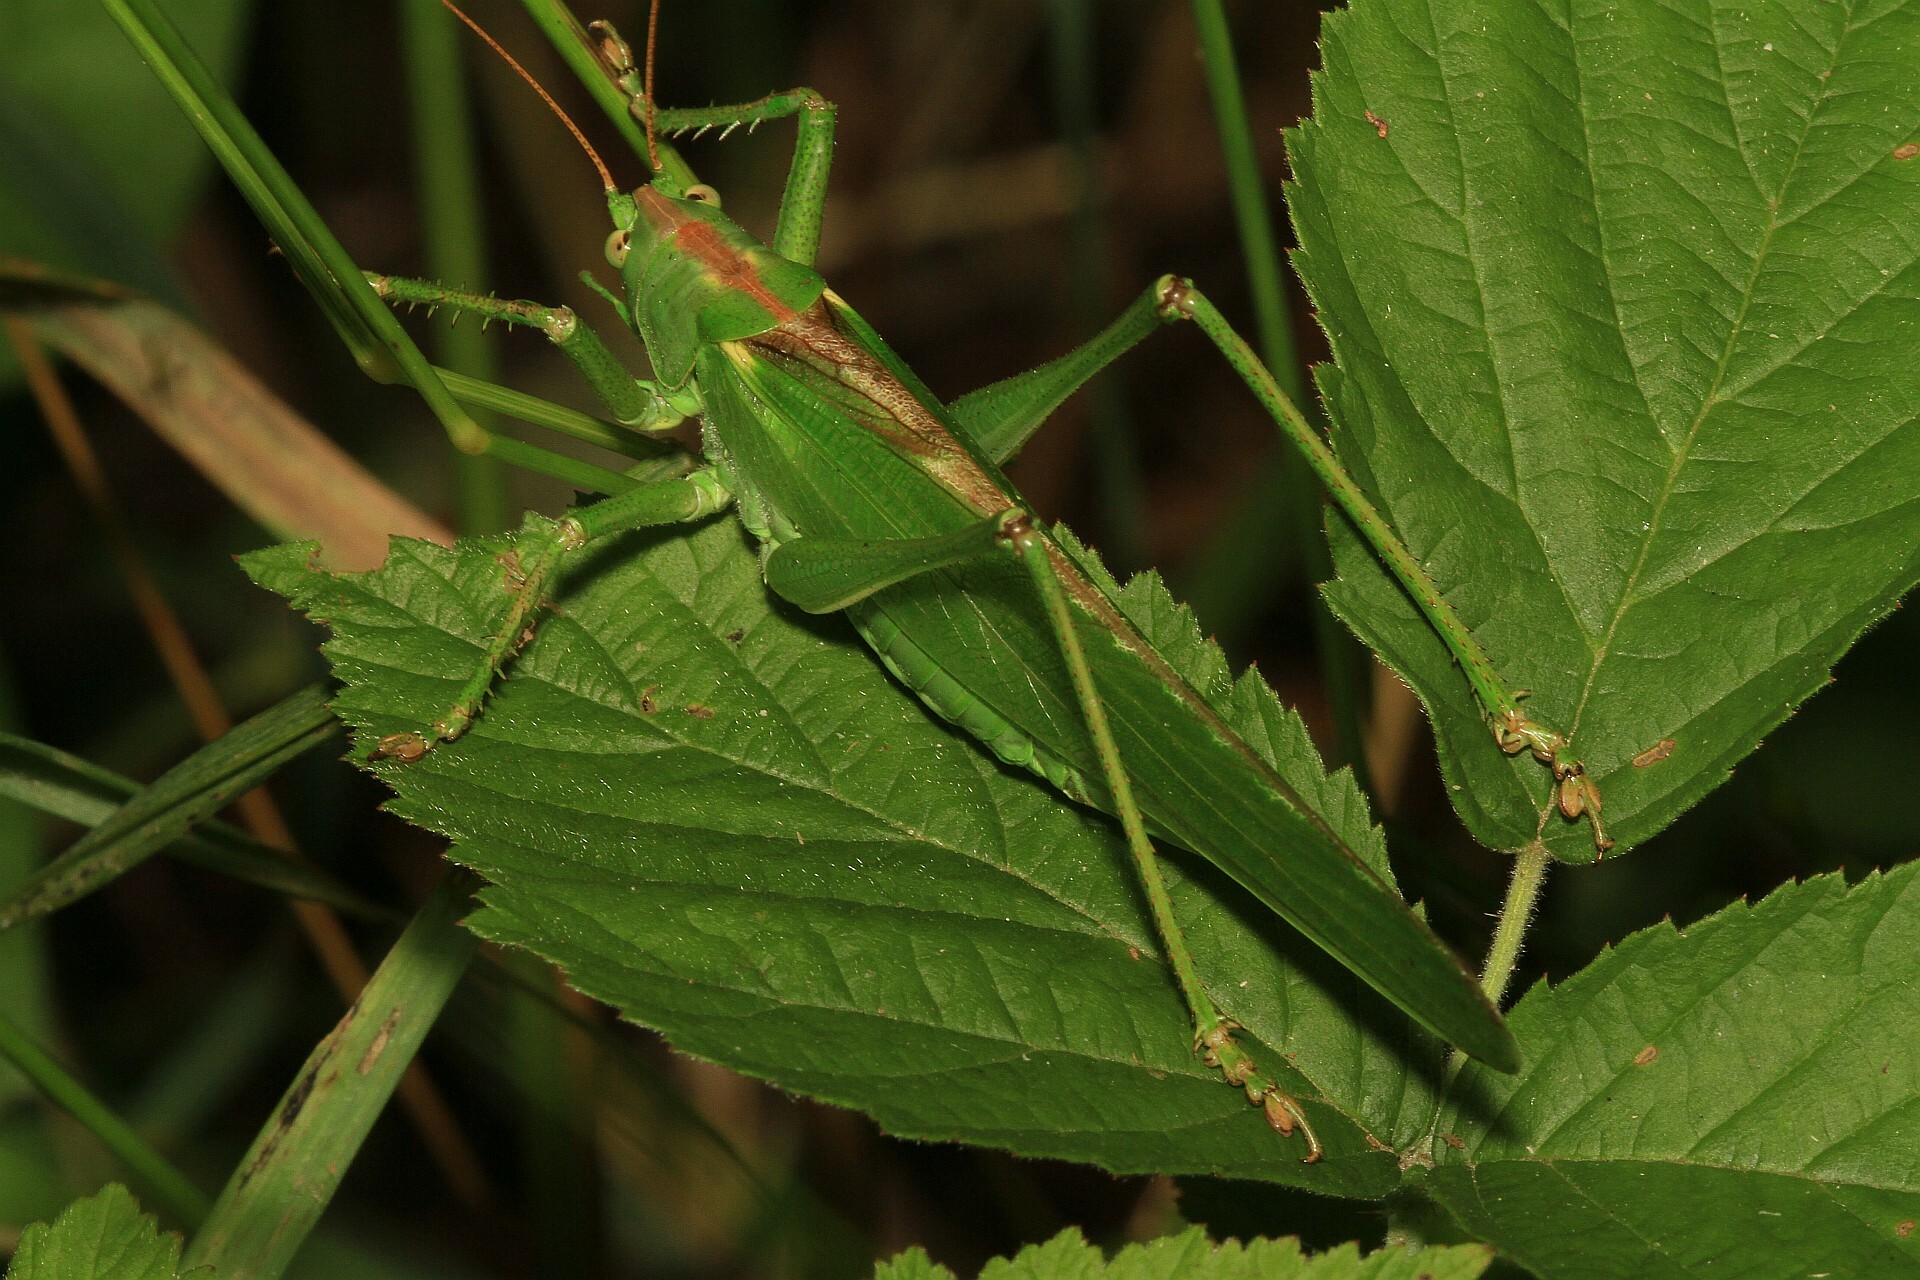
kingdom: Animalia
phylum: Arthropoda
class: Insecta
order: Orthoptera
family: Tettigoniidae
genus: Tettigonia
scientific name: Tettigonia viridissima
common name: Great green bush-cricket
